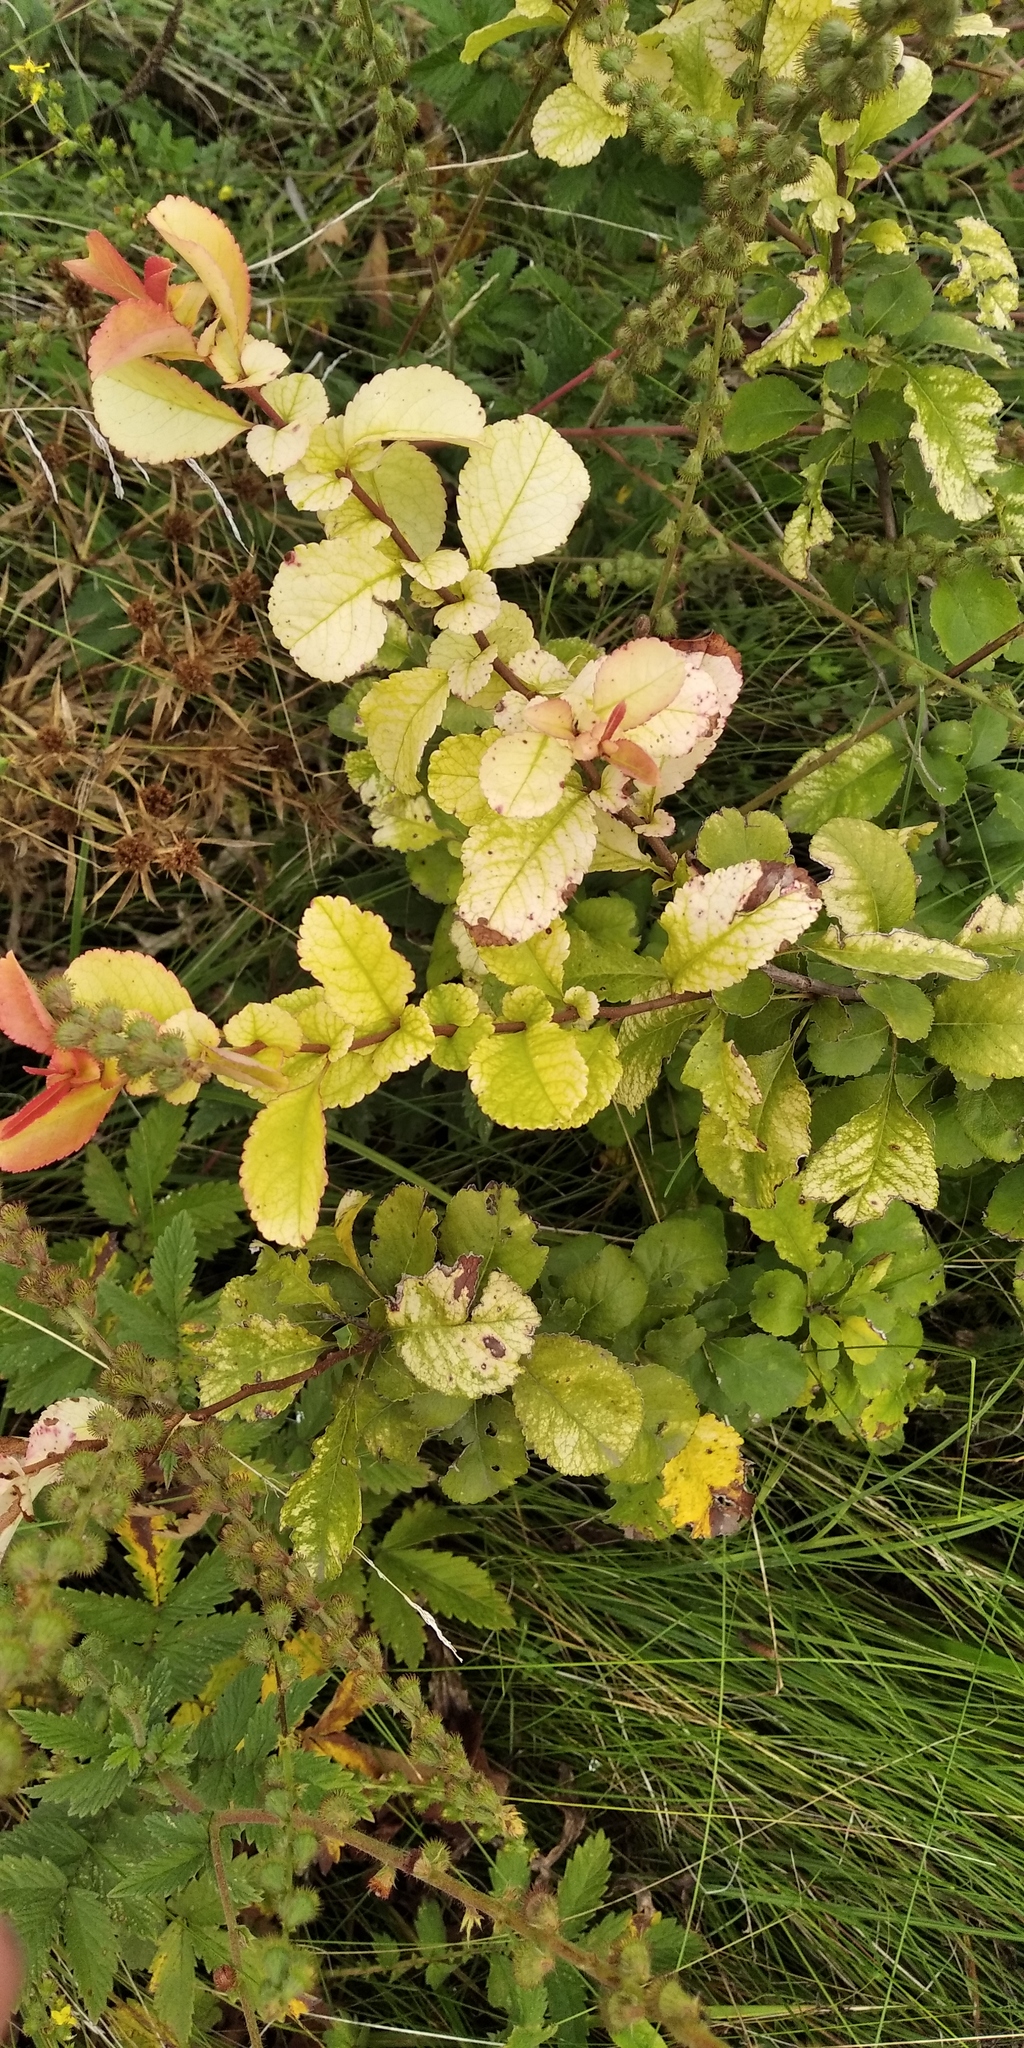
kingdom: Plantae
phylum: Tracheophyta
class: Magnoliopsida
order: Rosales
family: Rosaceae
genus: Chaenomeles
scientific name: Chaenomeles japonica
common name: Japanese quince
